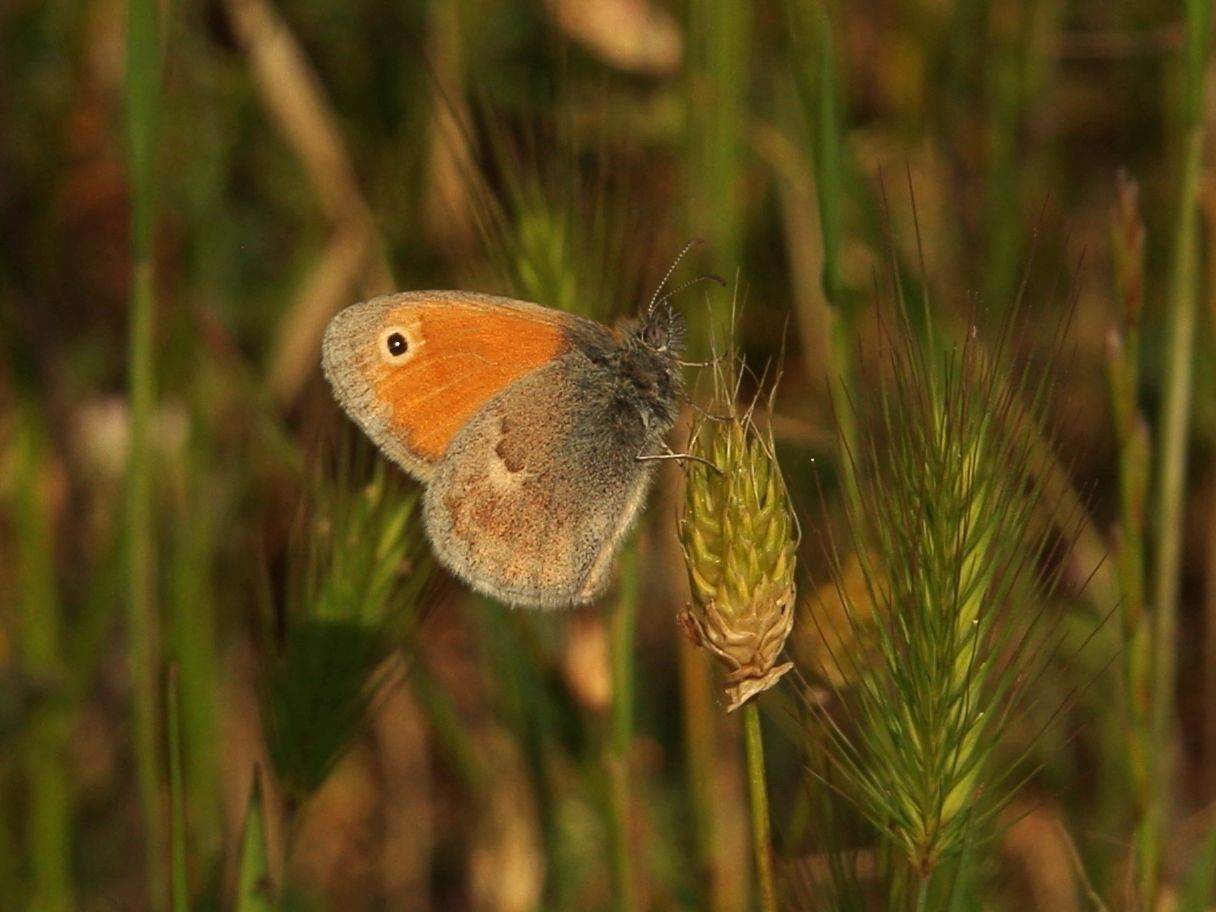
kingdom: Animalia
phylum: Arthropoda
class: Insecta
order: Lepidoptera
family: Nymphalidae
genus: Coenonympha
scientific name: Coenonympha pamphilus
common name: Small heath
